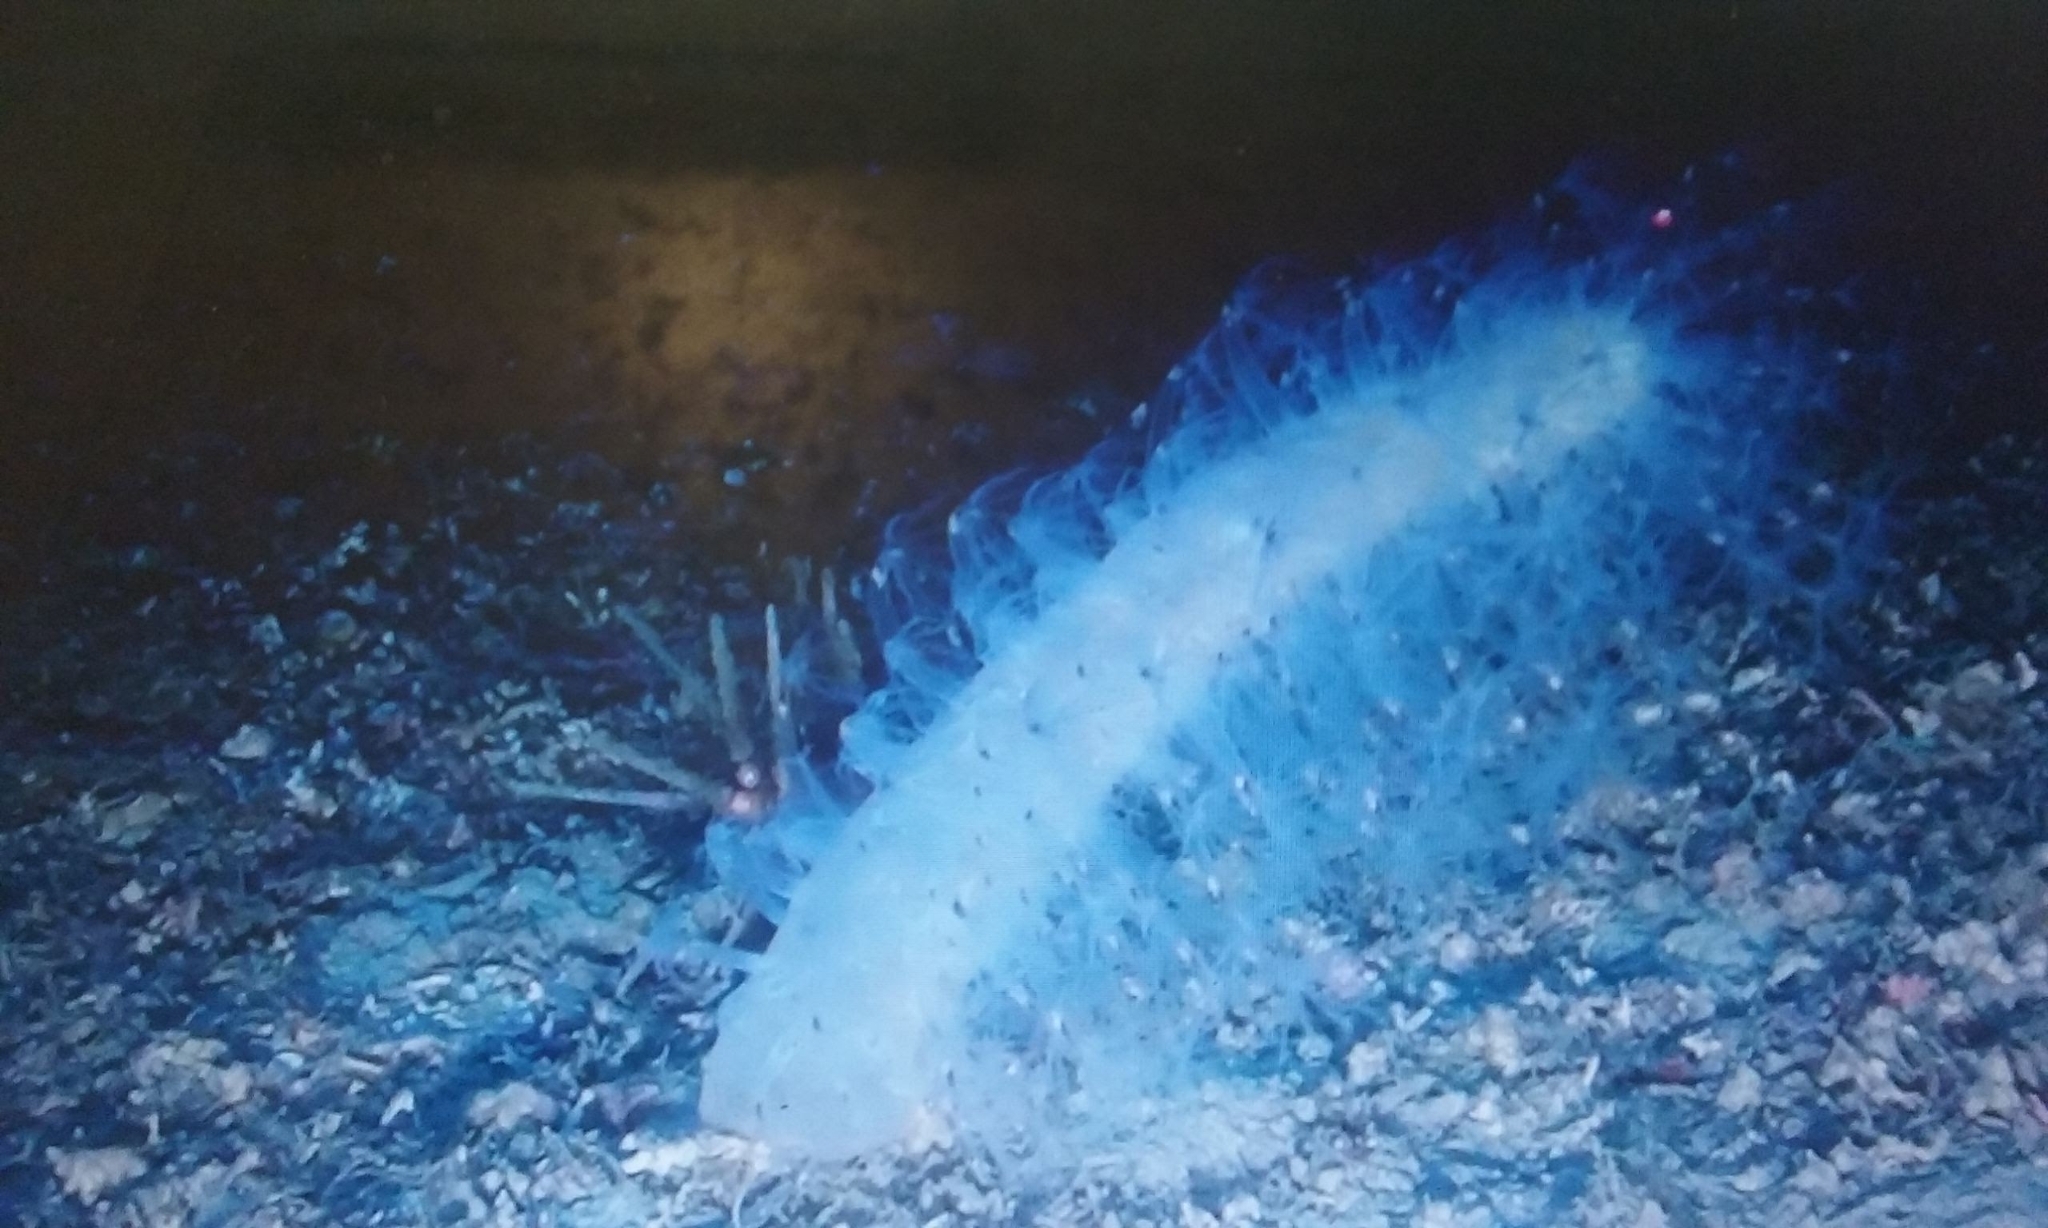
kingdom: Animalia
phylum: Cnidaria
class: Anthozoa
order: Scleralcyonacea
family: Veretillidae
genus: Veretillum
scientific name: Veretillum cynomorium
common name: Finger-shaped sea-pen
